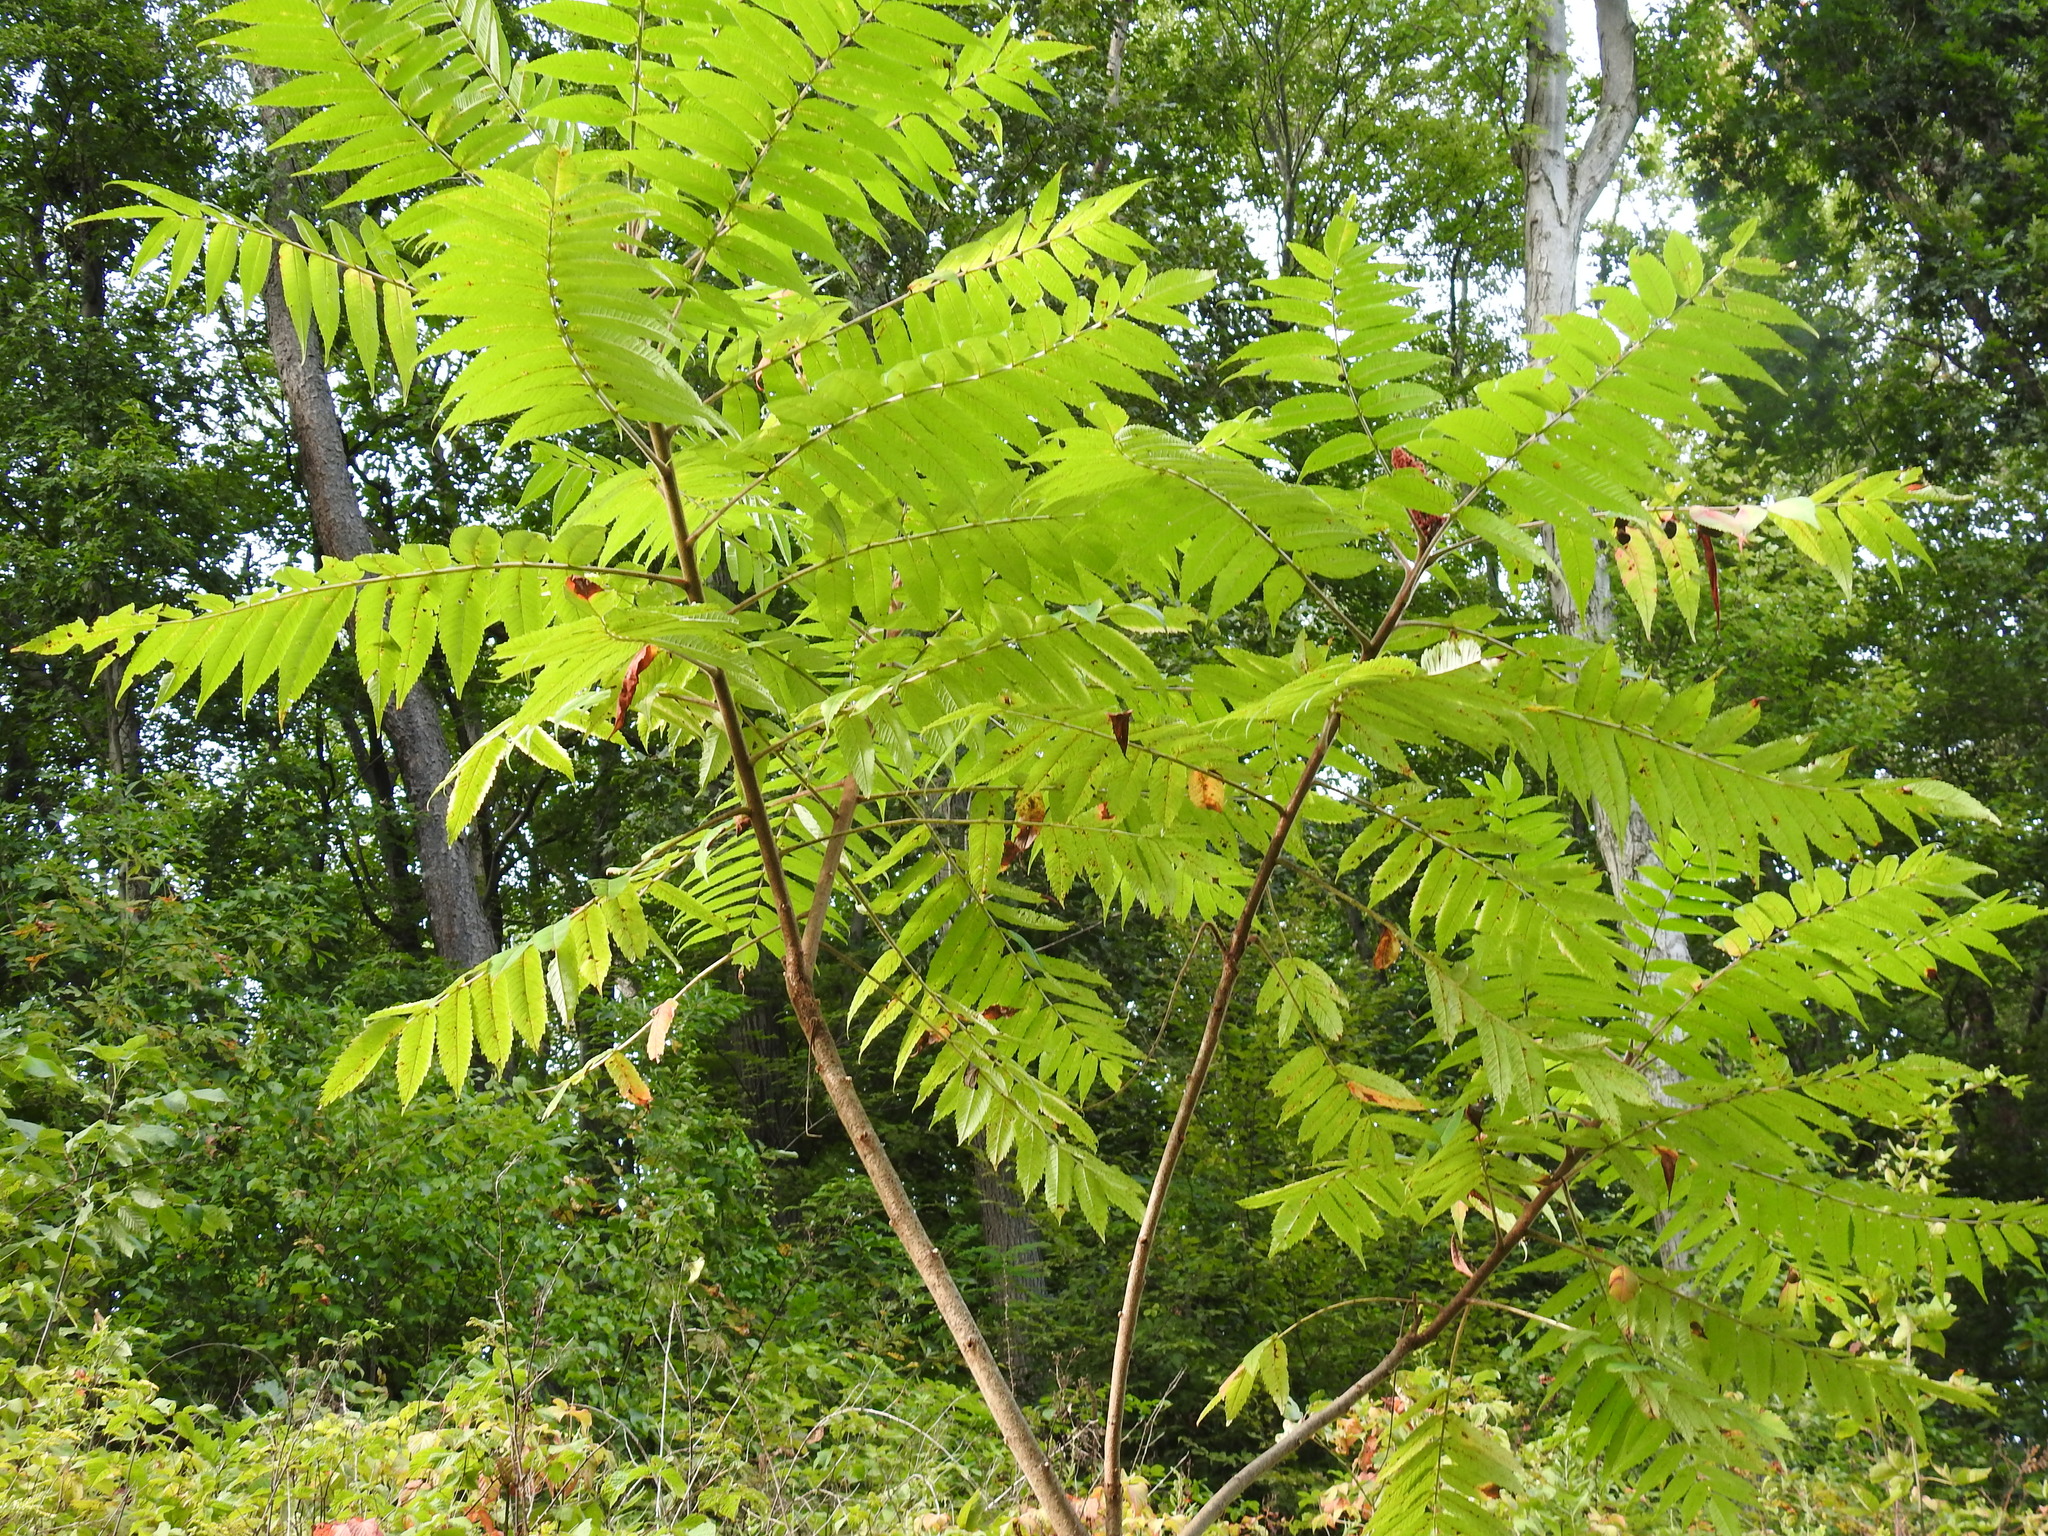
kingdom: Plantae
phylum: Tracheophyta
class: Magnoliopsida
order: Sapindales
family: Anacardiaceae
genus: Rhus
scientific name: Rhus typhina
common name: Staghorn sumac
